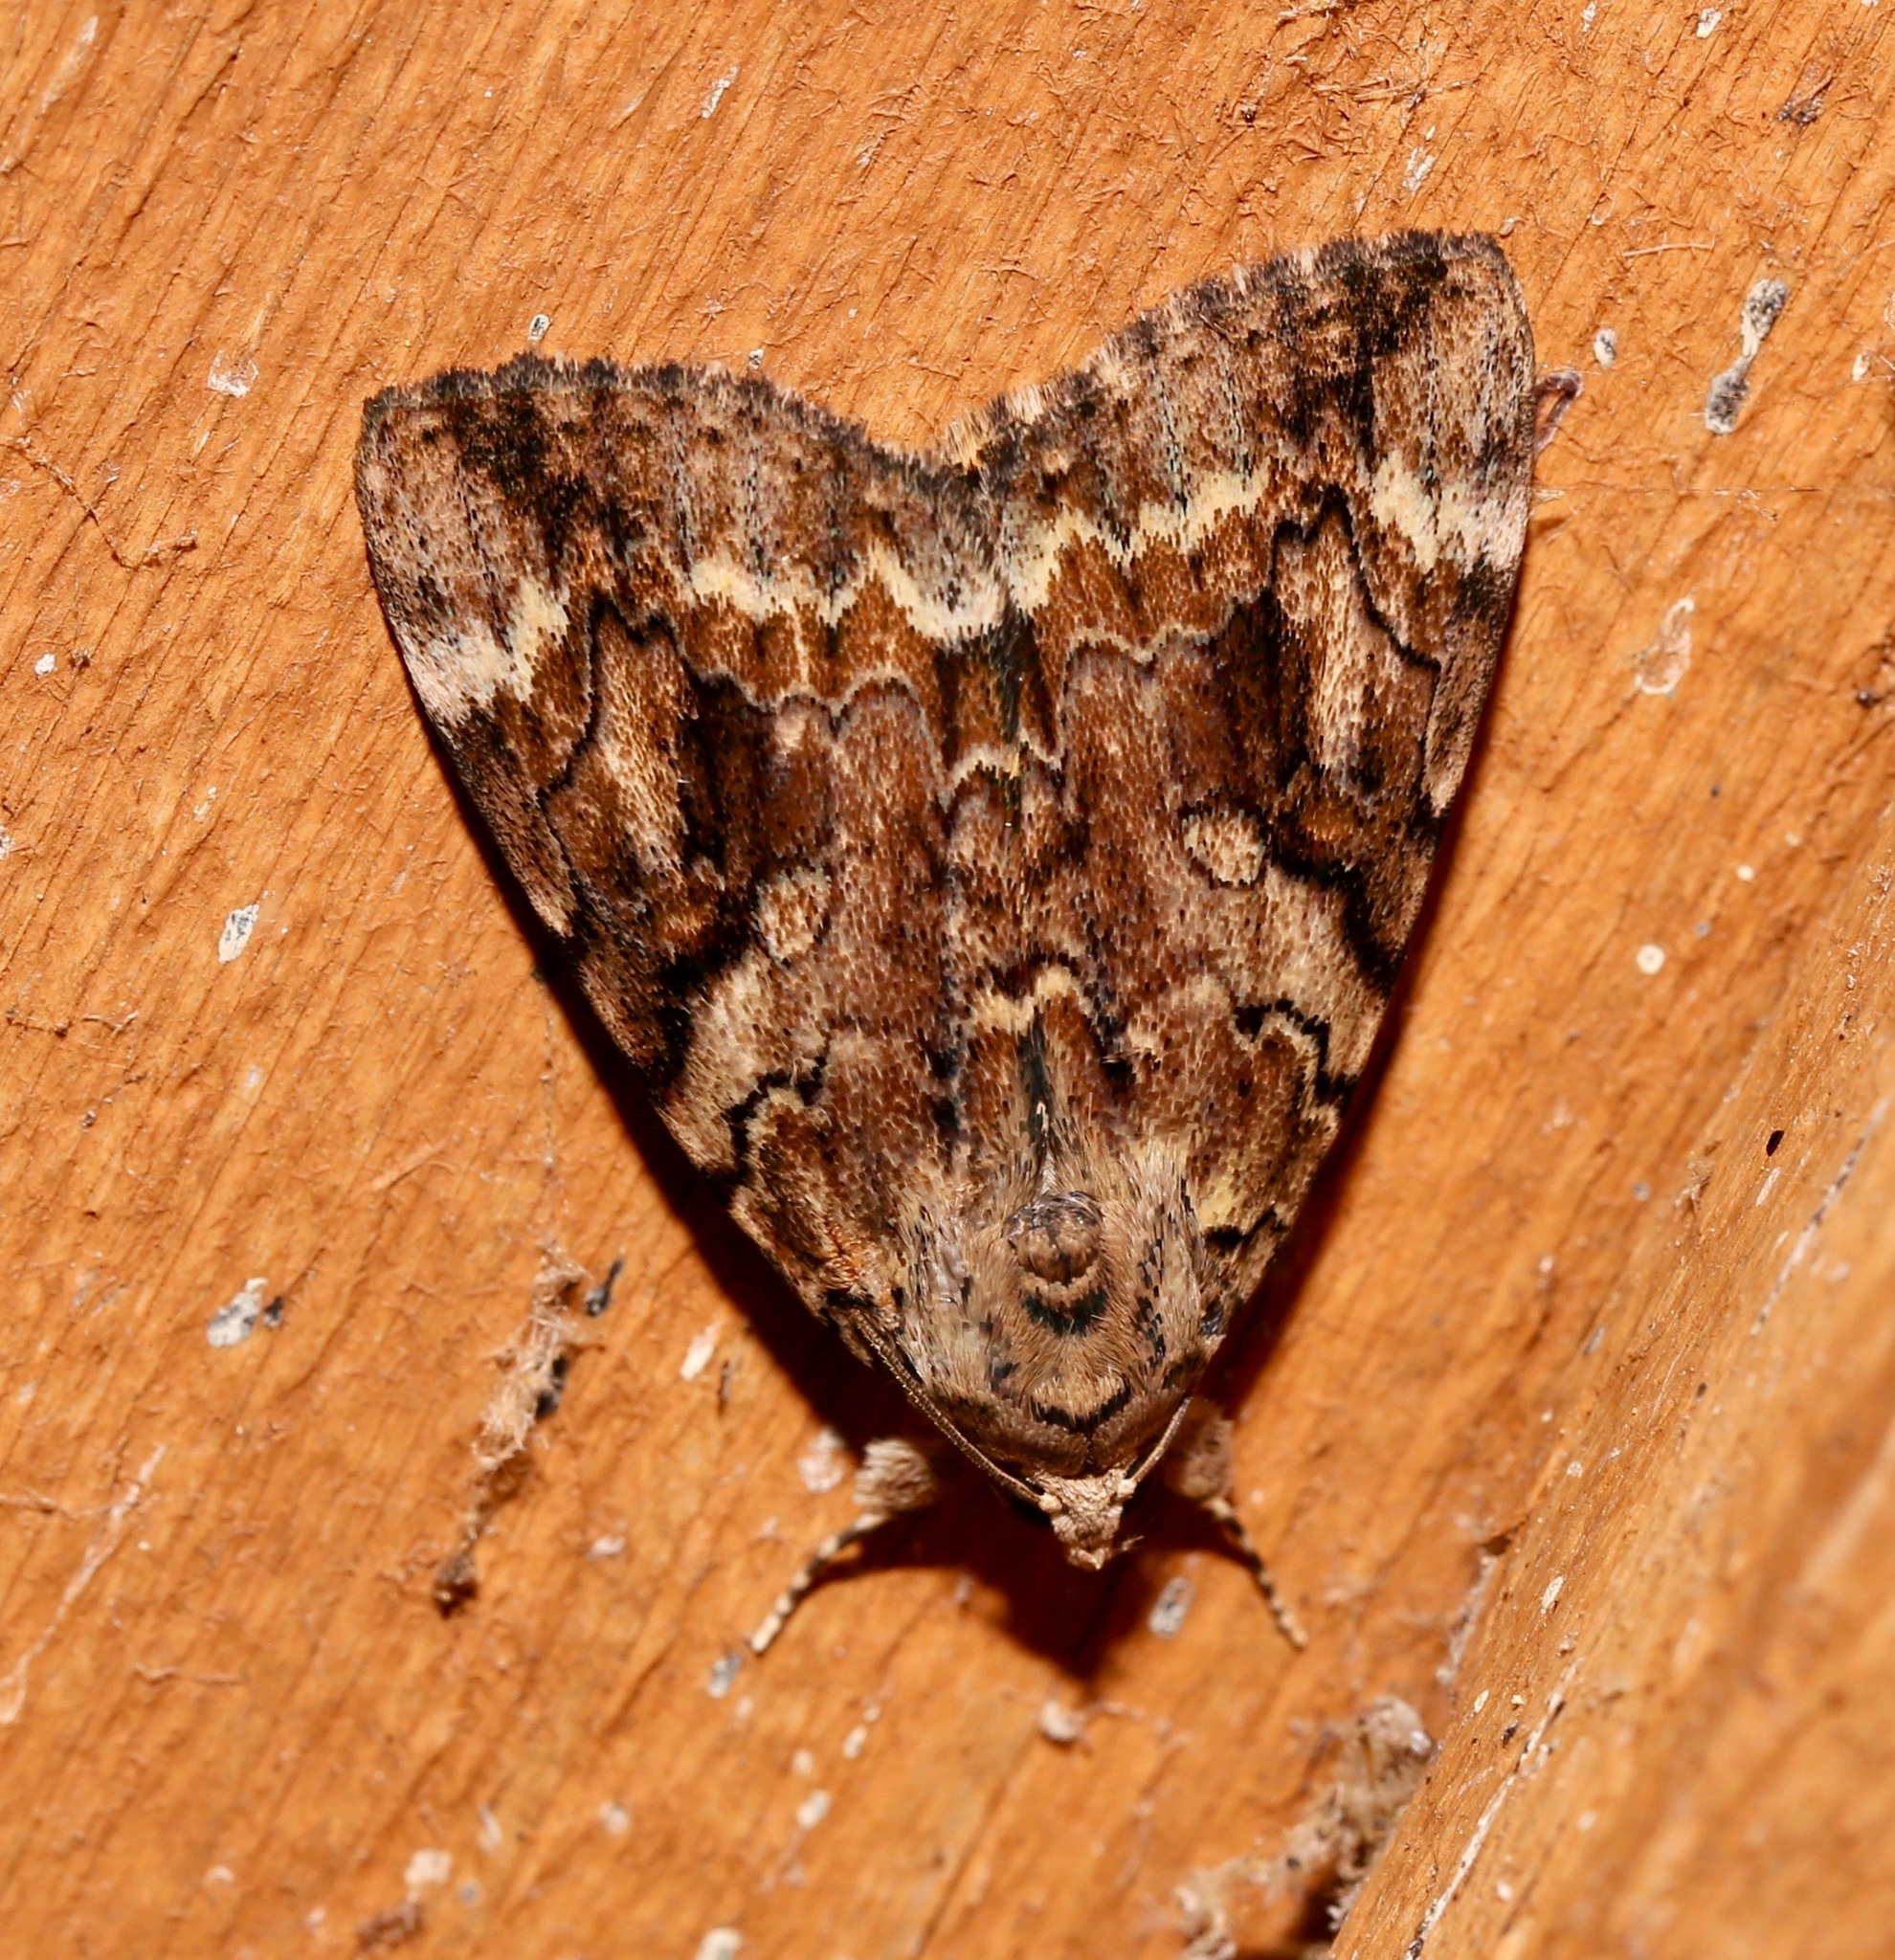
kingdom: Animalia
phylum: Arthropoda
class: Insecta
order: Lepidoptera
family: Erebidae
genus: Catocala
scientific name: Catocala micronympha
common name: Little nymph underwing
